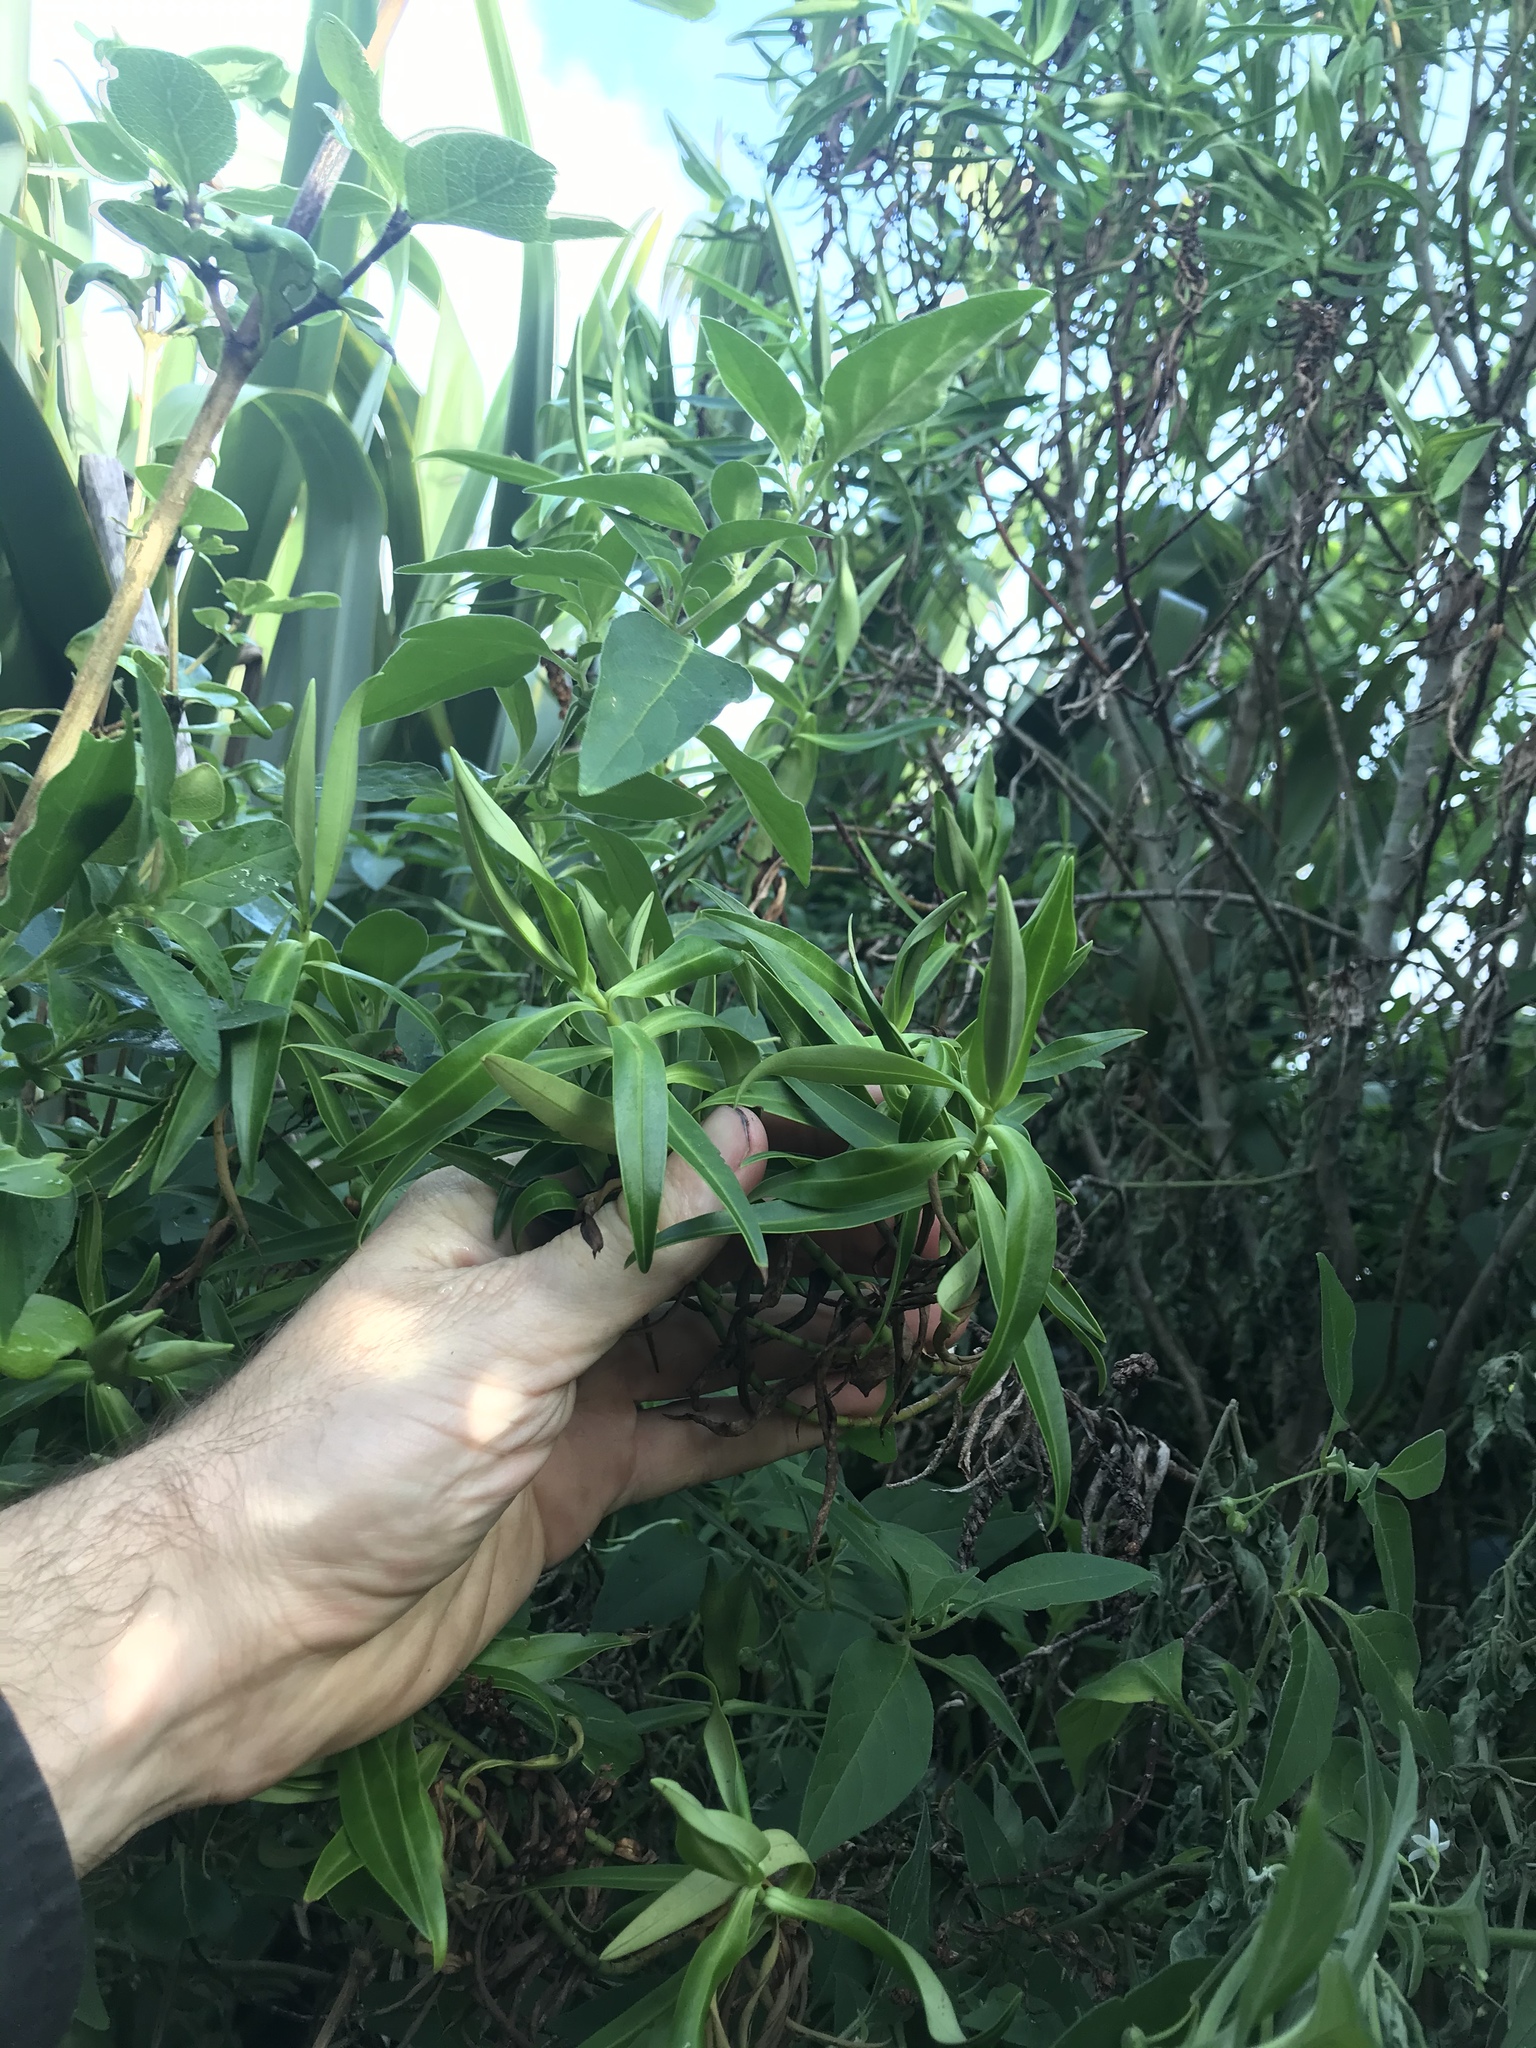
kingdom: Plantae
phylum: Tracheophyta
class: Magnoliopsida
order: Lamiales
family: Plantaginaceae
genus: Veronica
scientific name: Veronica barkeri
